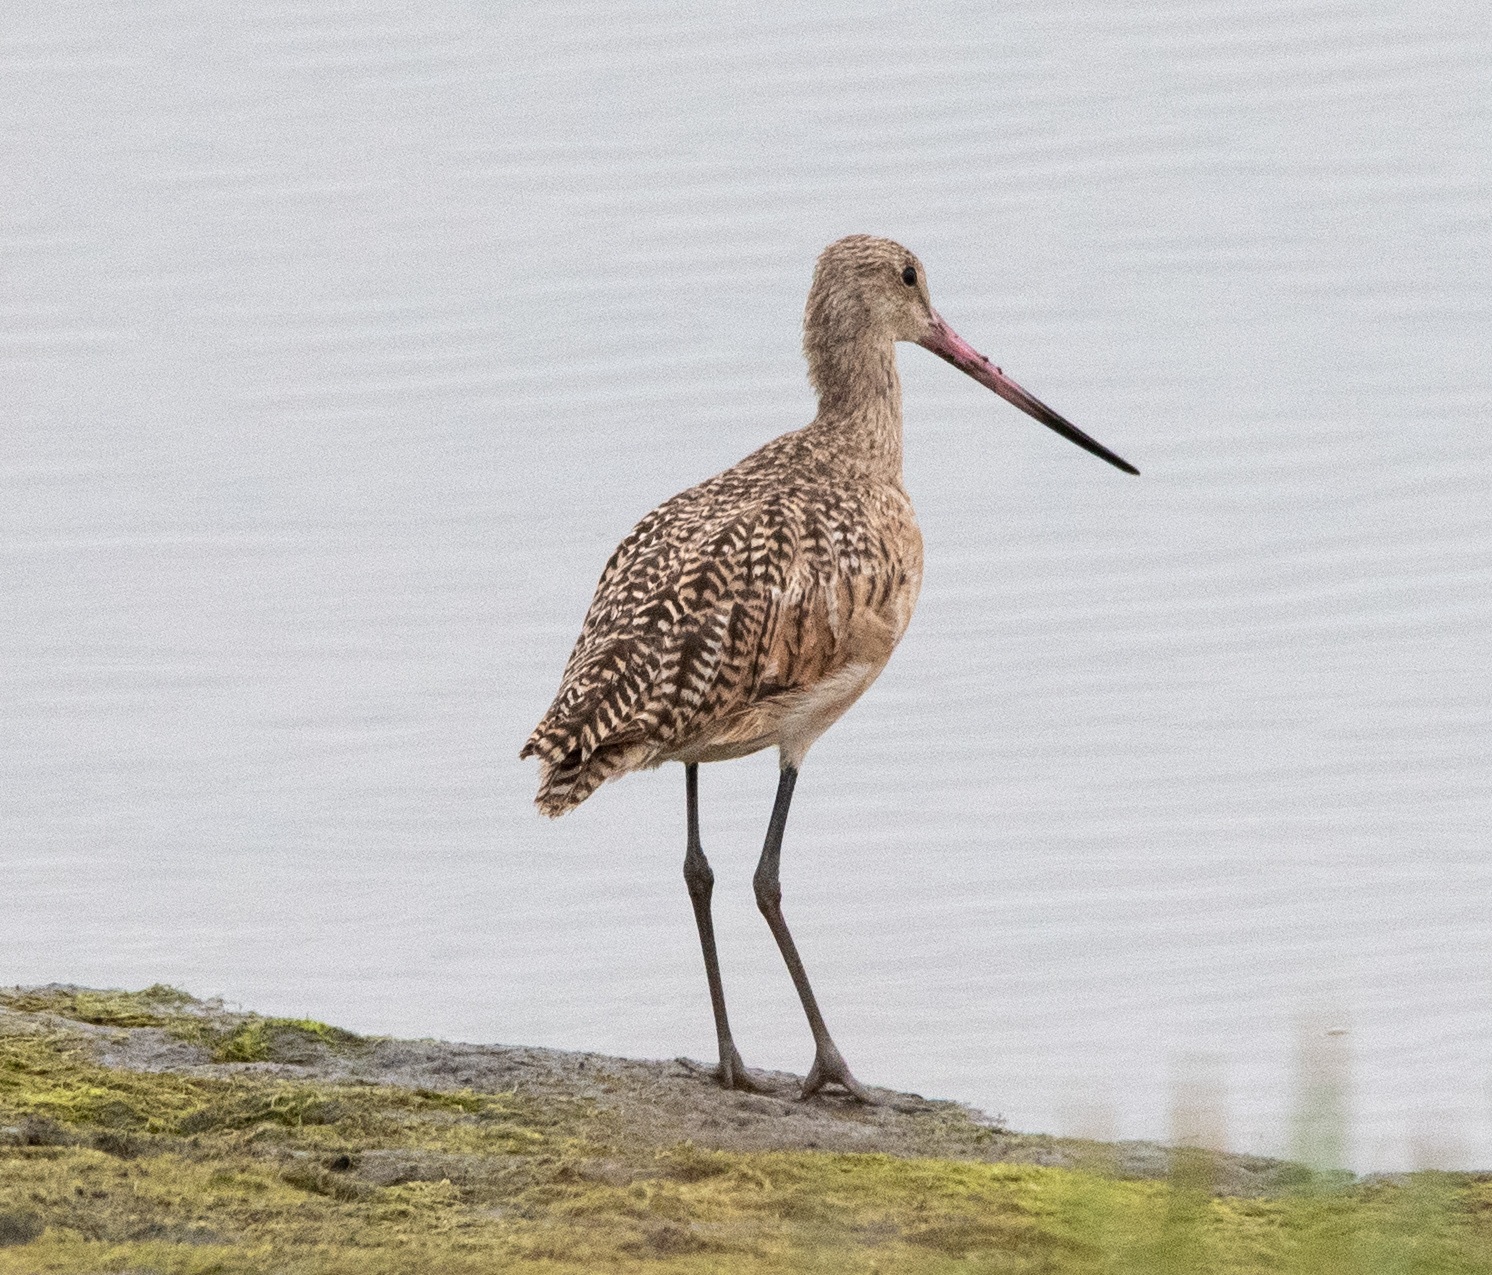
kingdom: Animalia
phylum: Chordata
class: Aves
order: Charadriiformes
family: Scolopacidae
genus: Limosa
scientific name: Limosa fedoa
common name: Marbled godwit
